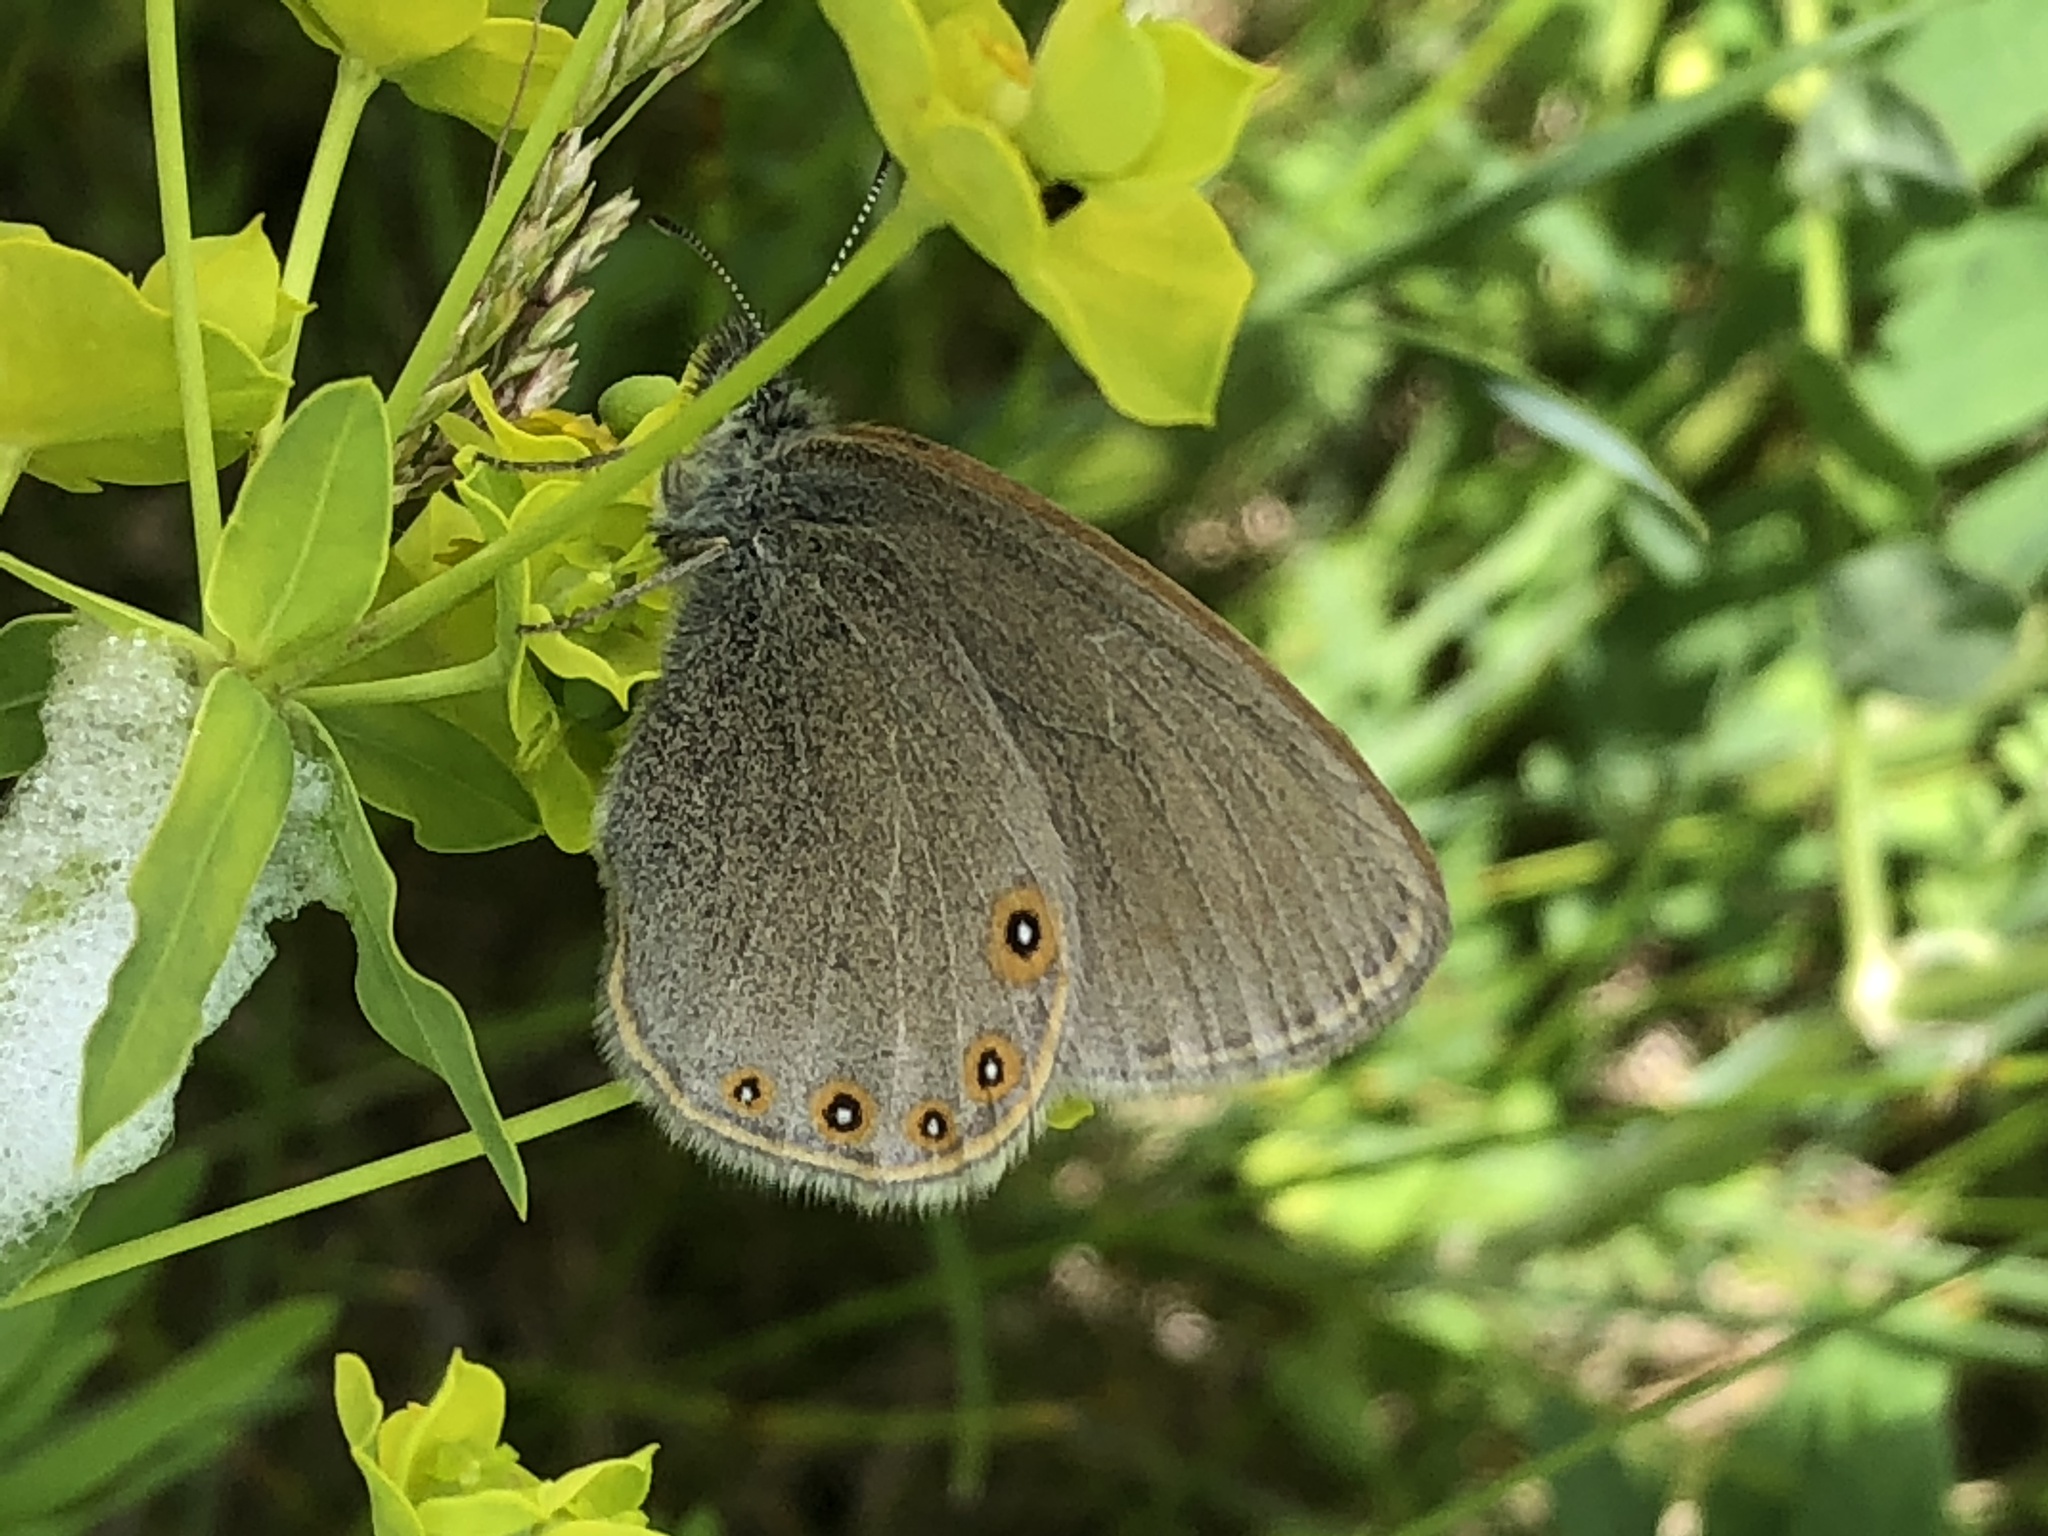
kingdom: Animalia
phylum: Arthropoda
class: Insecta
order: Lepidoptera
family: Nymphalidae
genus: Coenonympha
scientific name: Coenonympha haydeni
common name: Hayden's ringlet
